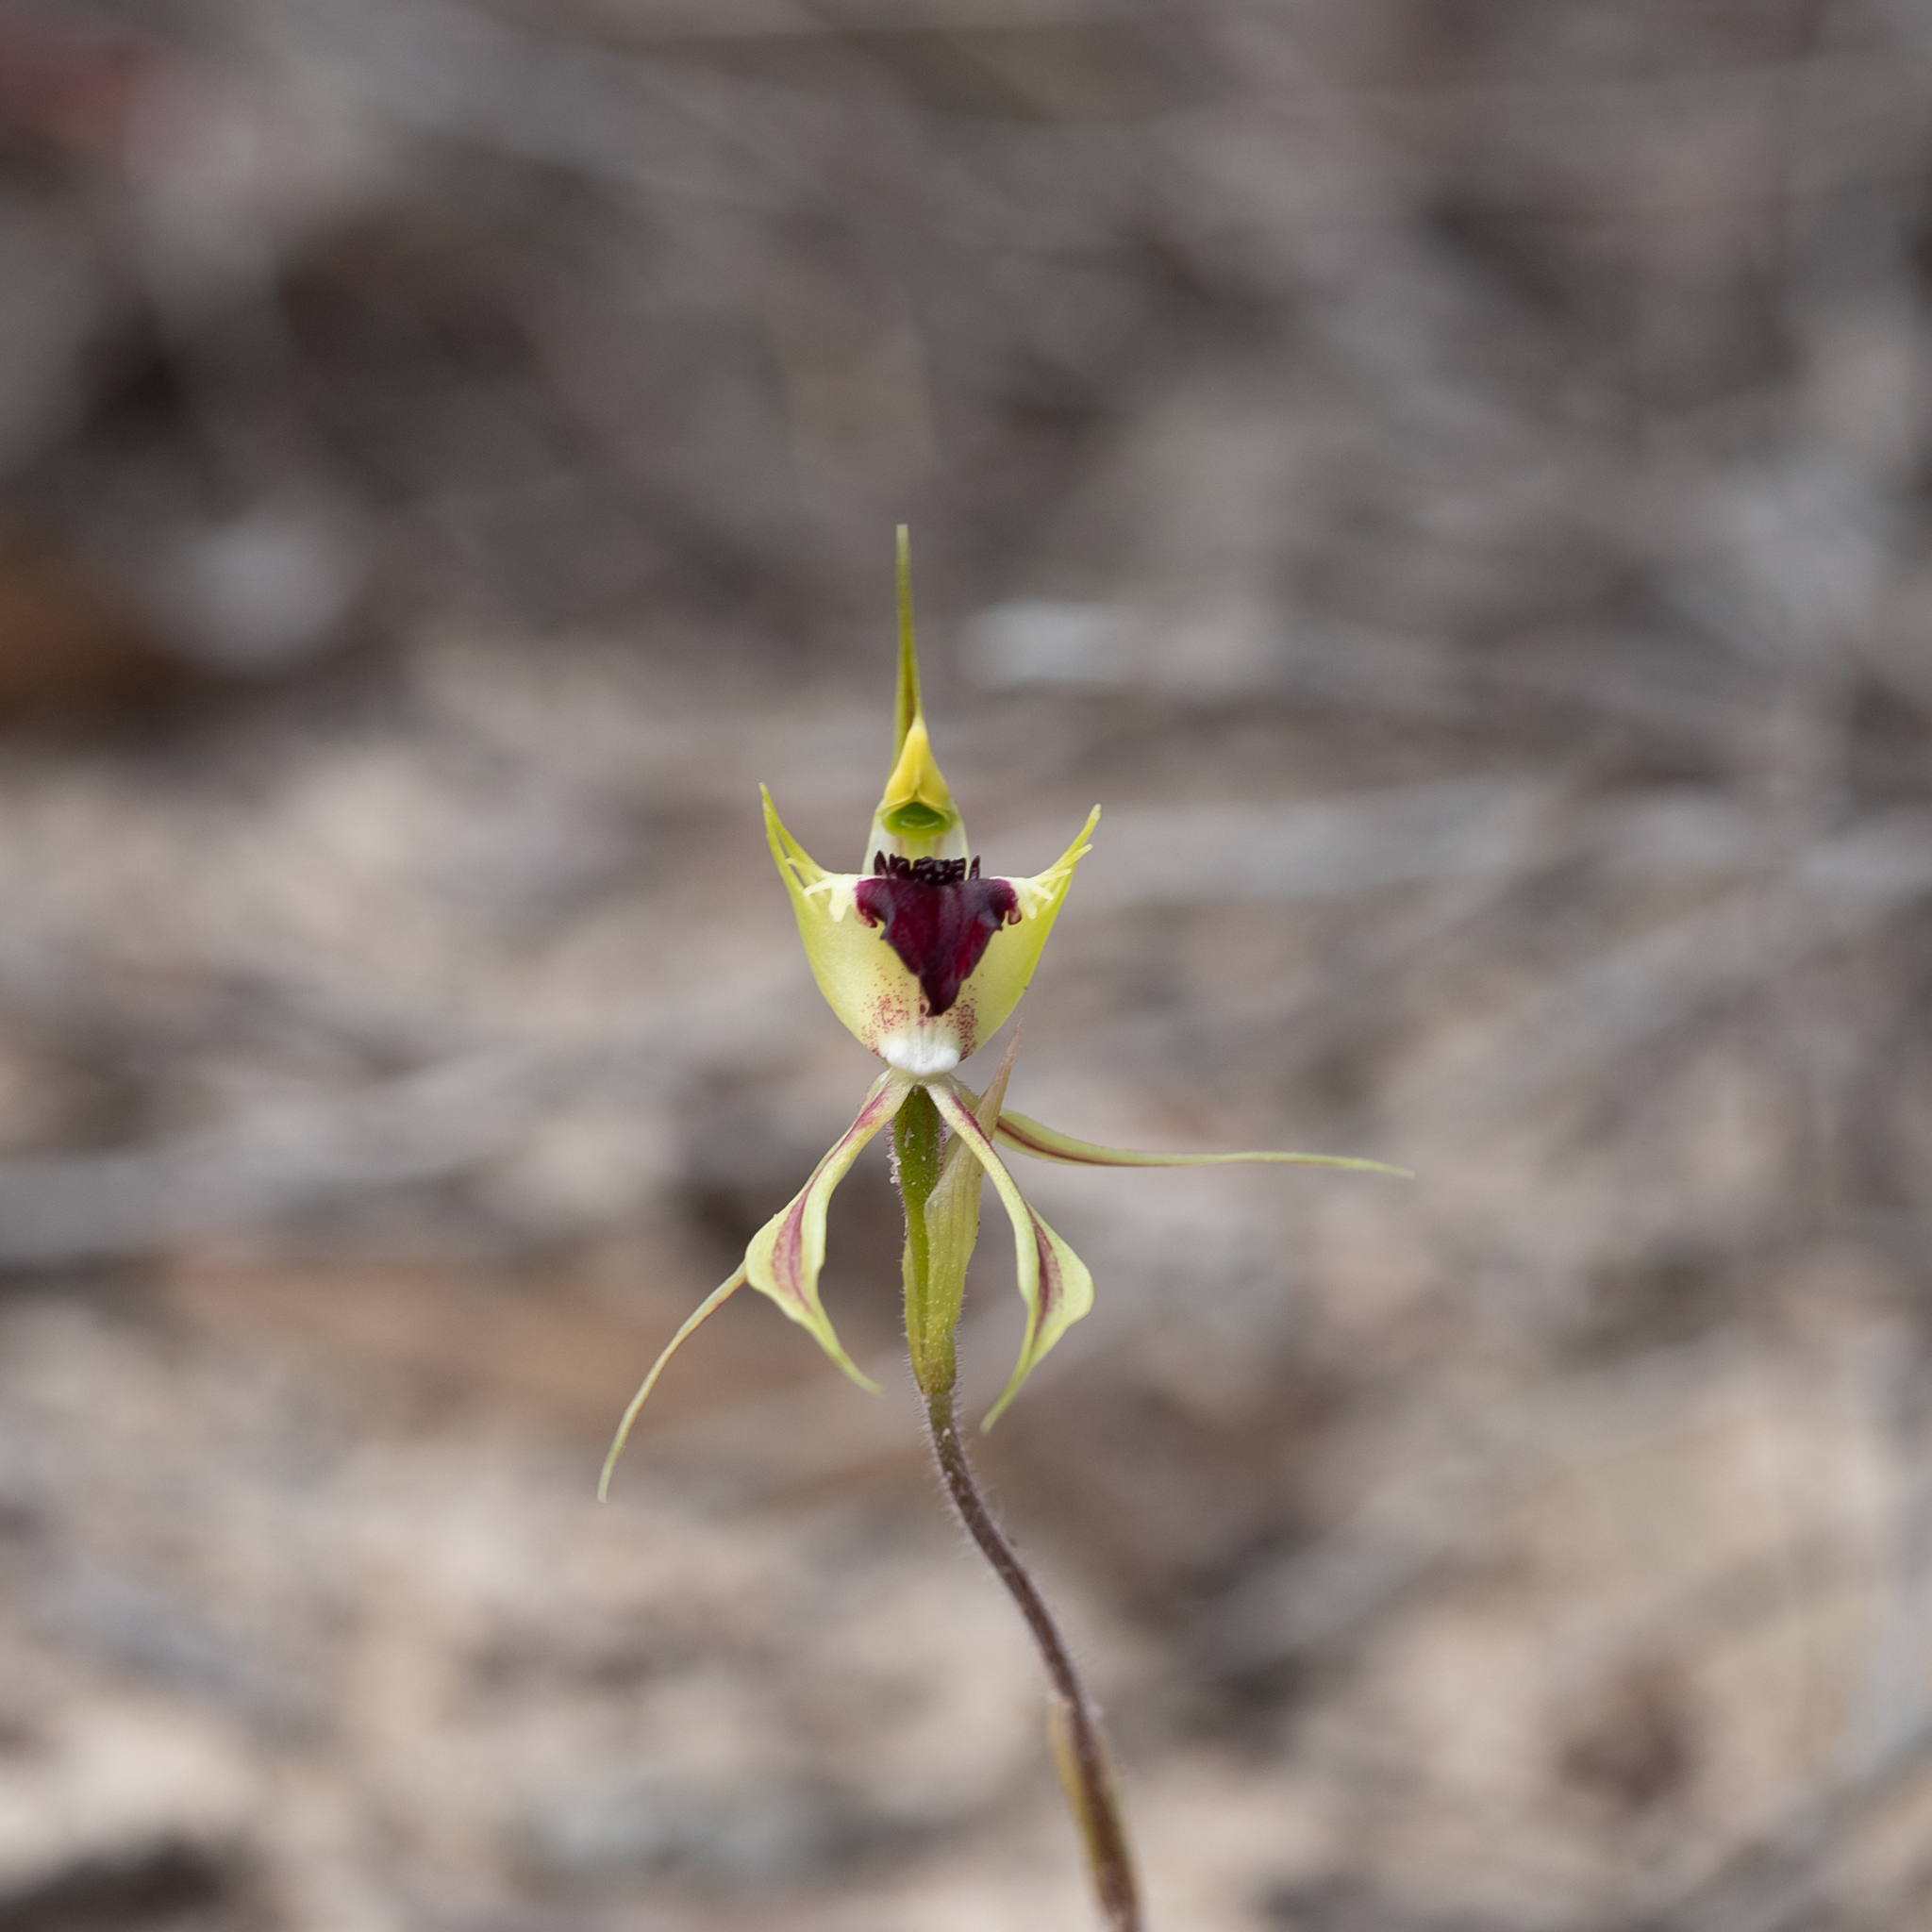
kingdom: Plantae
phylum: Tracheophyta
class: Liliopsida
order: Asparagales
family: Orchidaceae
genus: Caladenia
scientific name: Caladenia stricta
